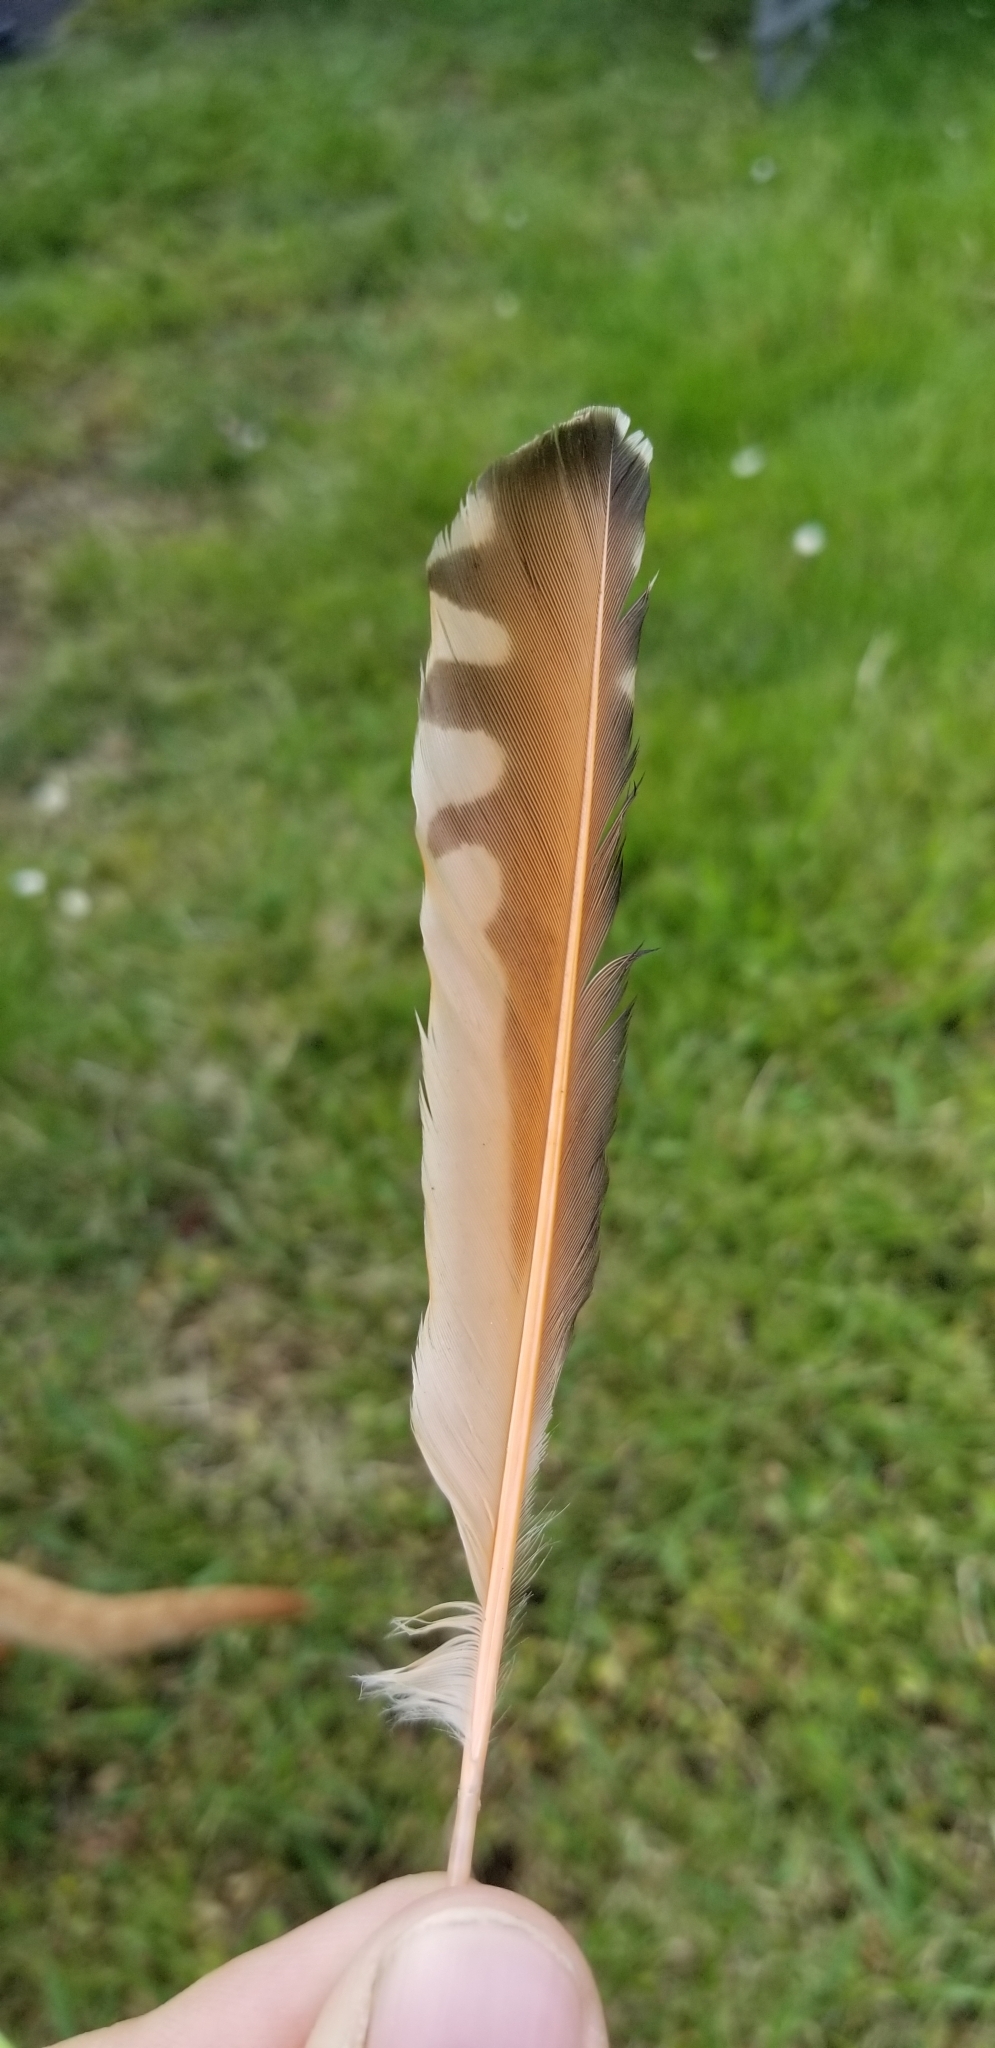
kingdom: Animalia
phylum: Chordata
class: Aves
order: Piciformes
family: Picidae
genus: Colaptes
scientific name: Colaptes auratus
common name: Northern flicker
